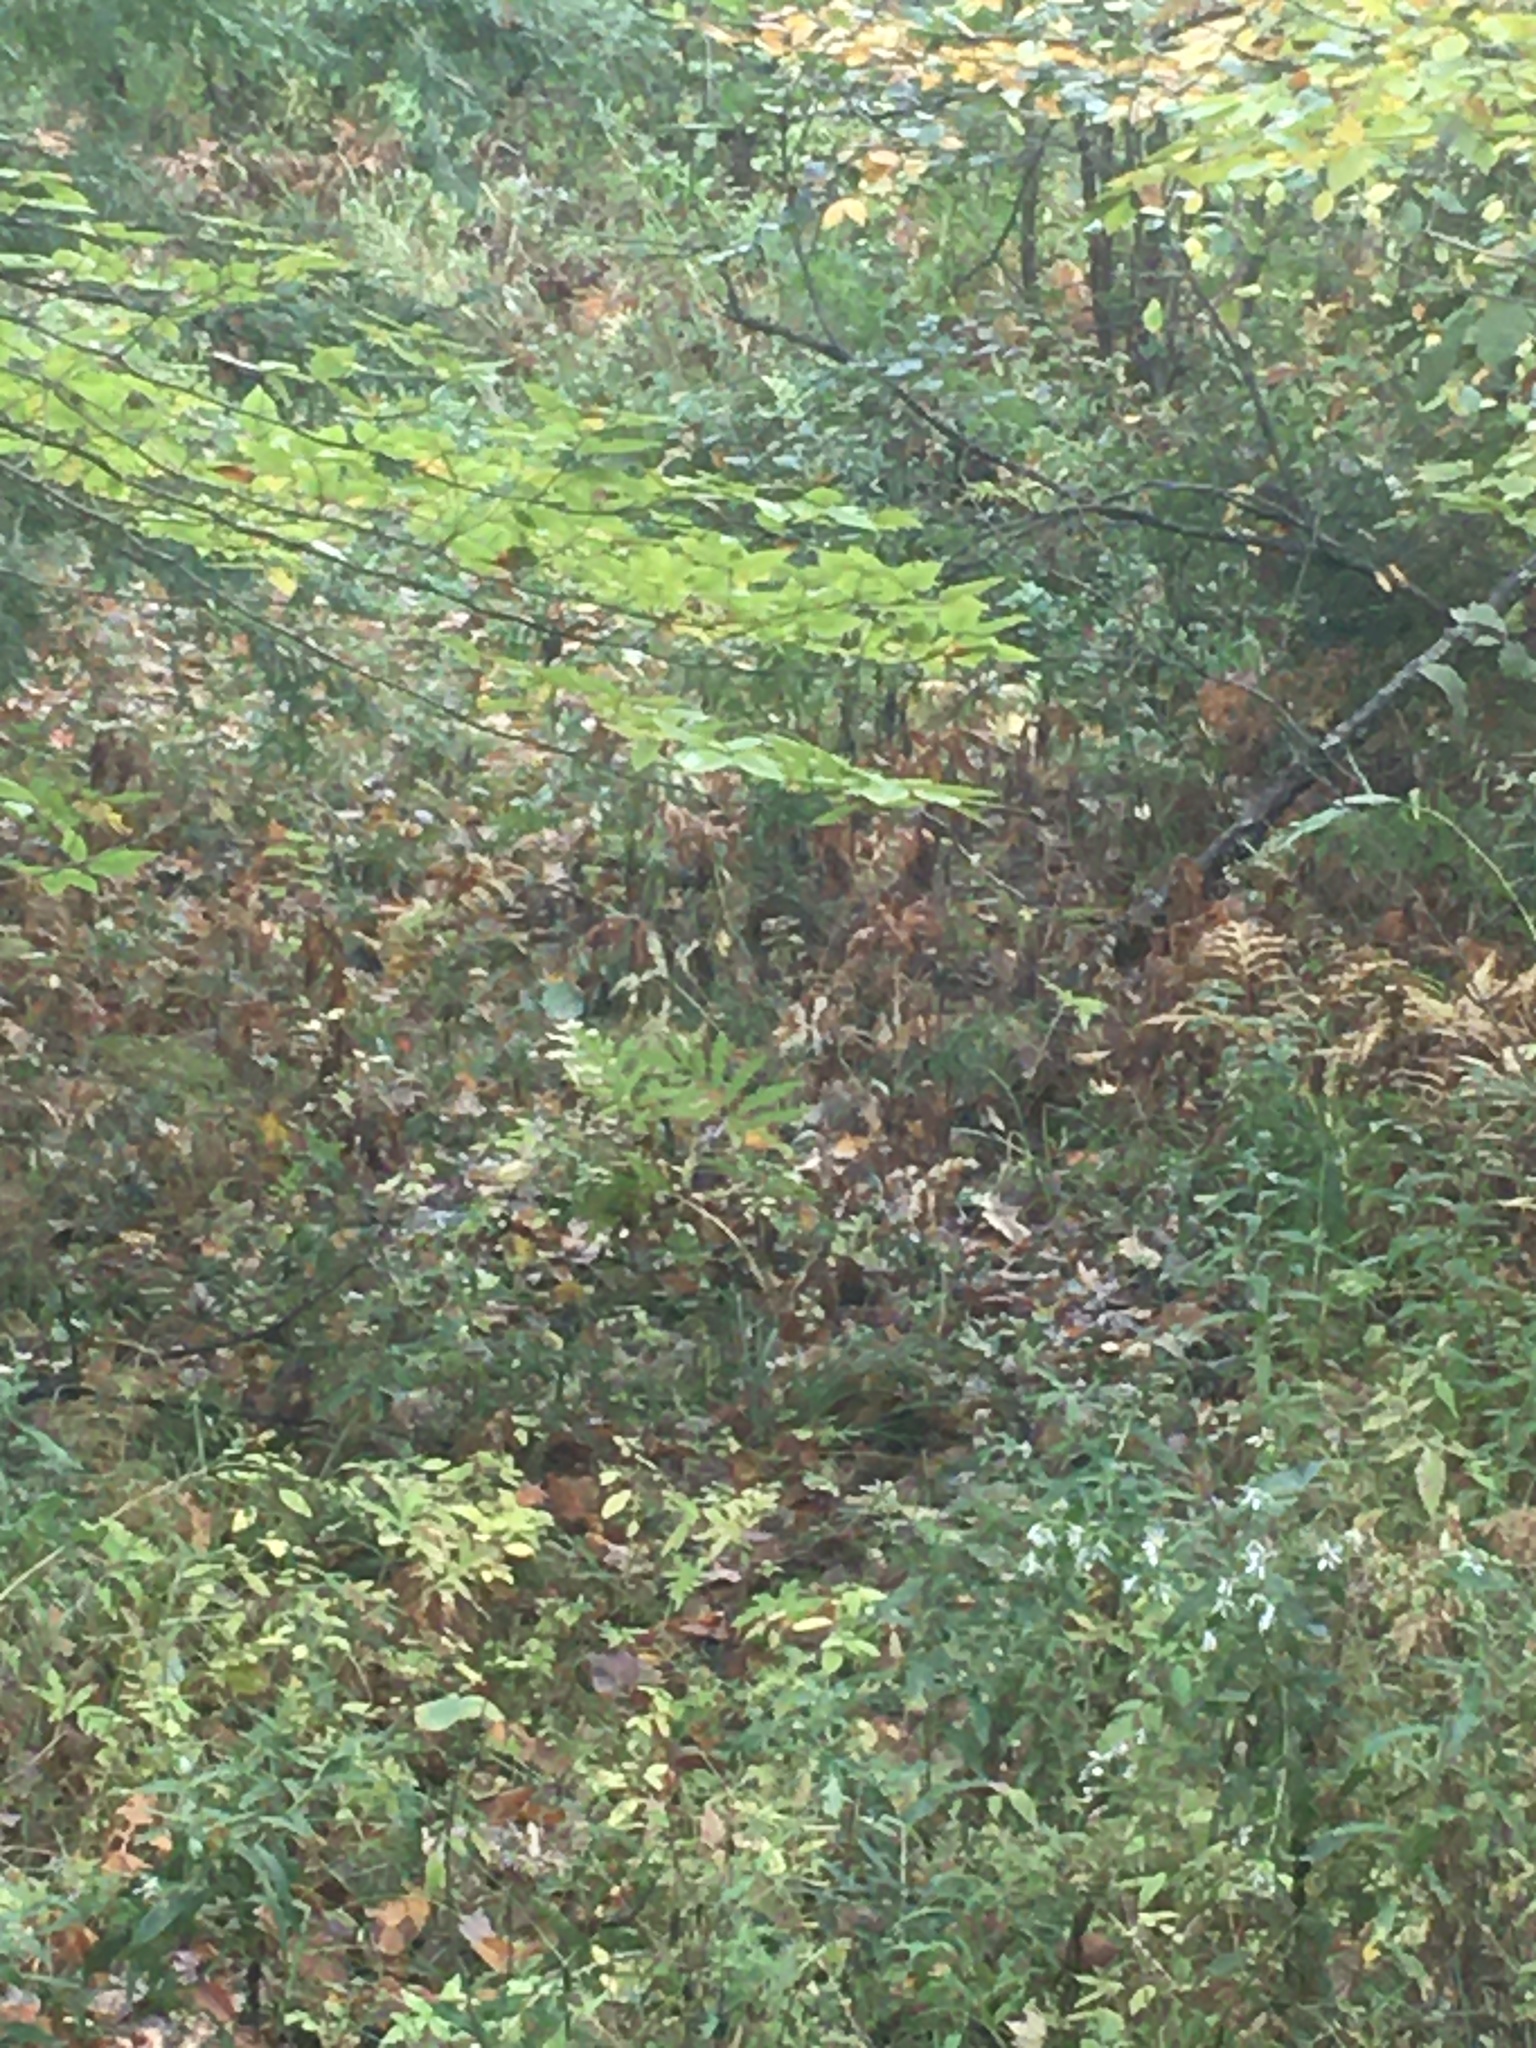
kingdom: Plantae
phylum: Tracheophyta
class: Polypodiopsida
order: Polypodiales
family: Onocleaceae
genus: Onoclea
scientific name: Onoclea sensibilis
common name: Sensitive fern
